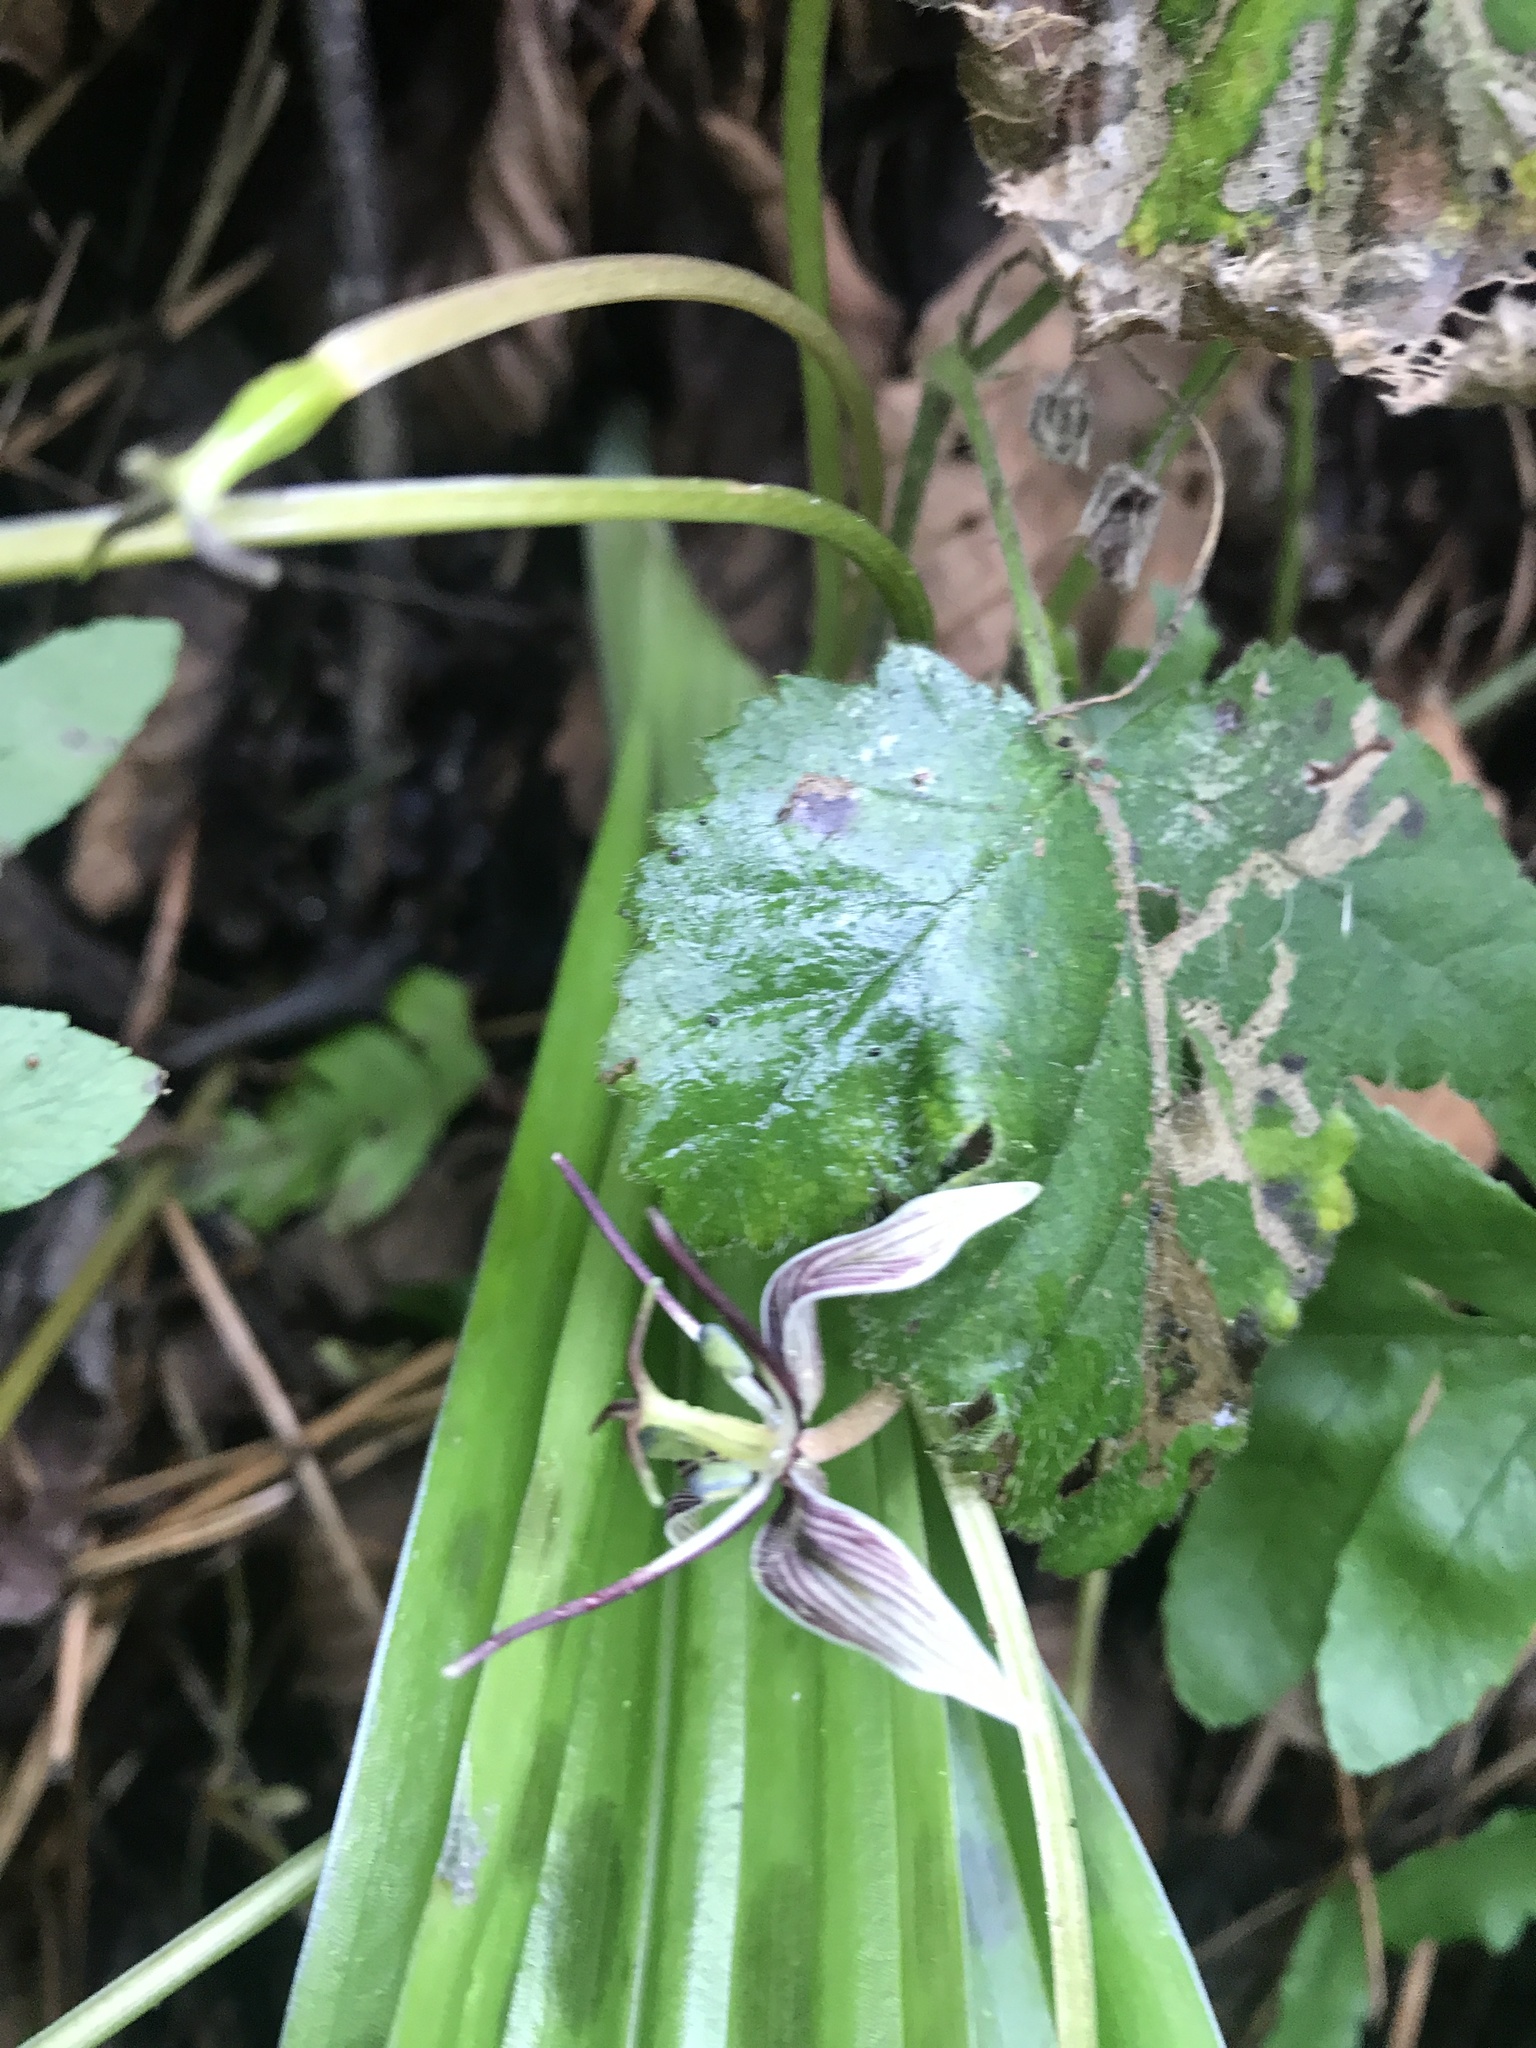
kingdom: Plantae
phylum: Tracheophyta
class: Liliopsida
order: Liliales
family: Liliaceae
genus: Scoliopus
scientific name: Scoliopus bigelovii
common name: Foetid adder's-tongue
